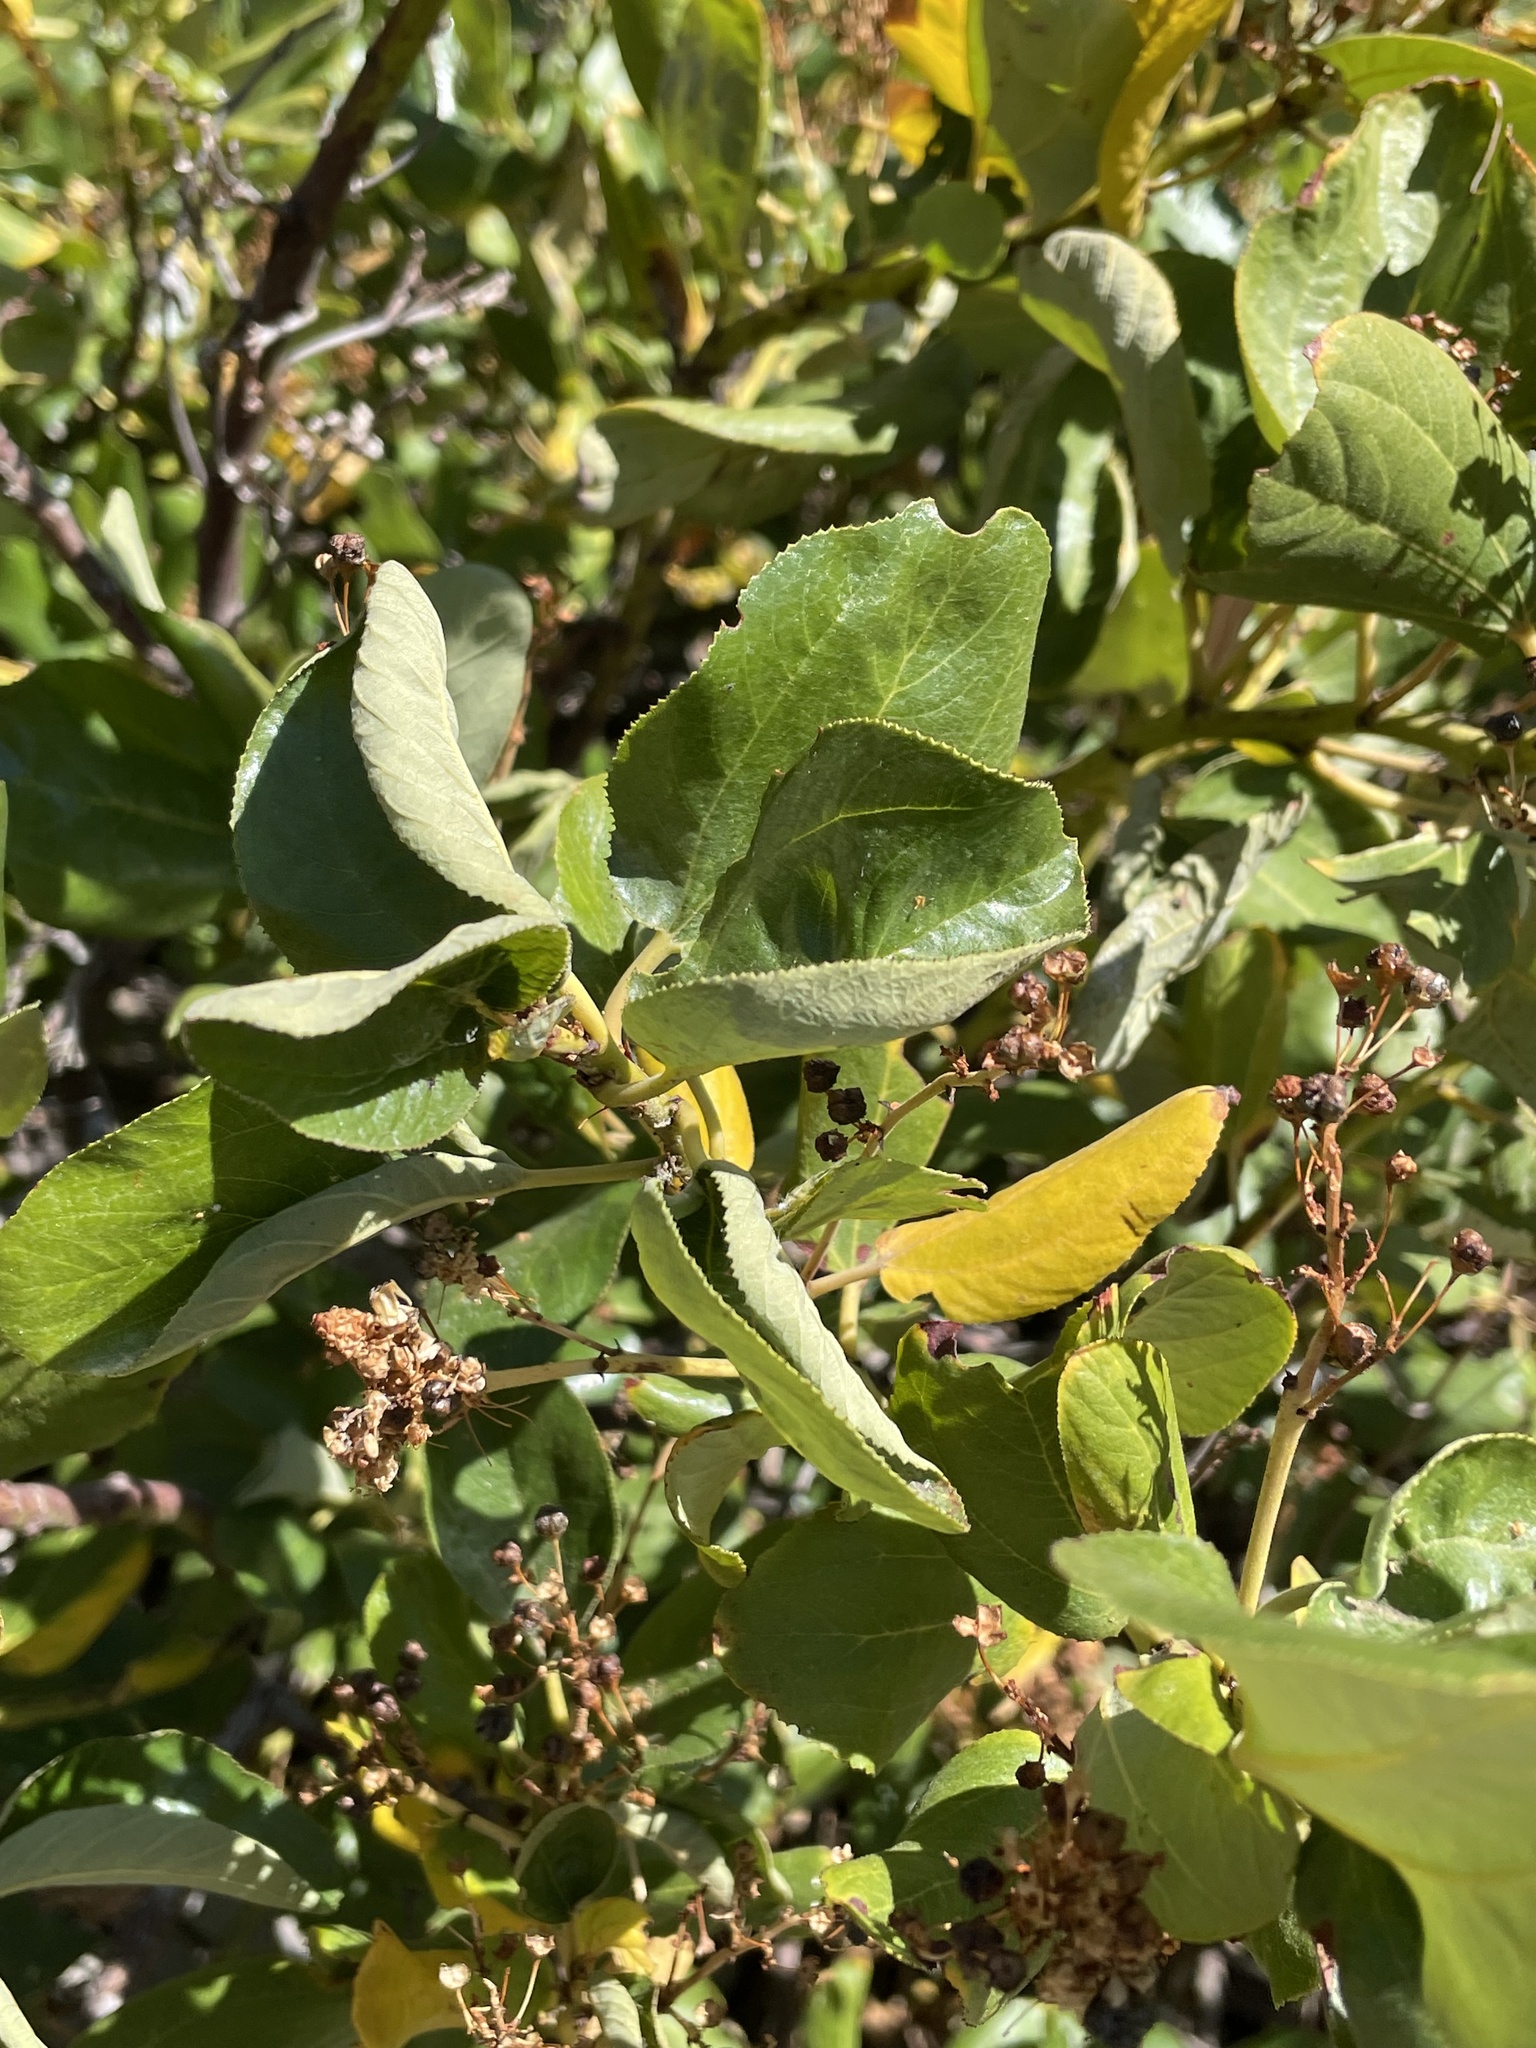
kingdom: Plantae
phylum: Tracheophyta
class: Magnoliopsida
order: Rosales
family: Rhamnaceae
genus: Ceanothus
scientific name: Ceanothus velutinus
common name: Snowbrush
